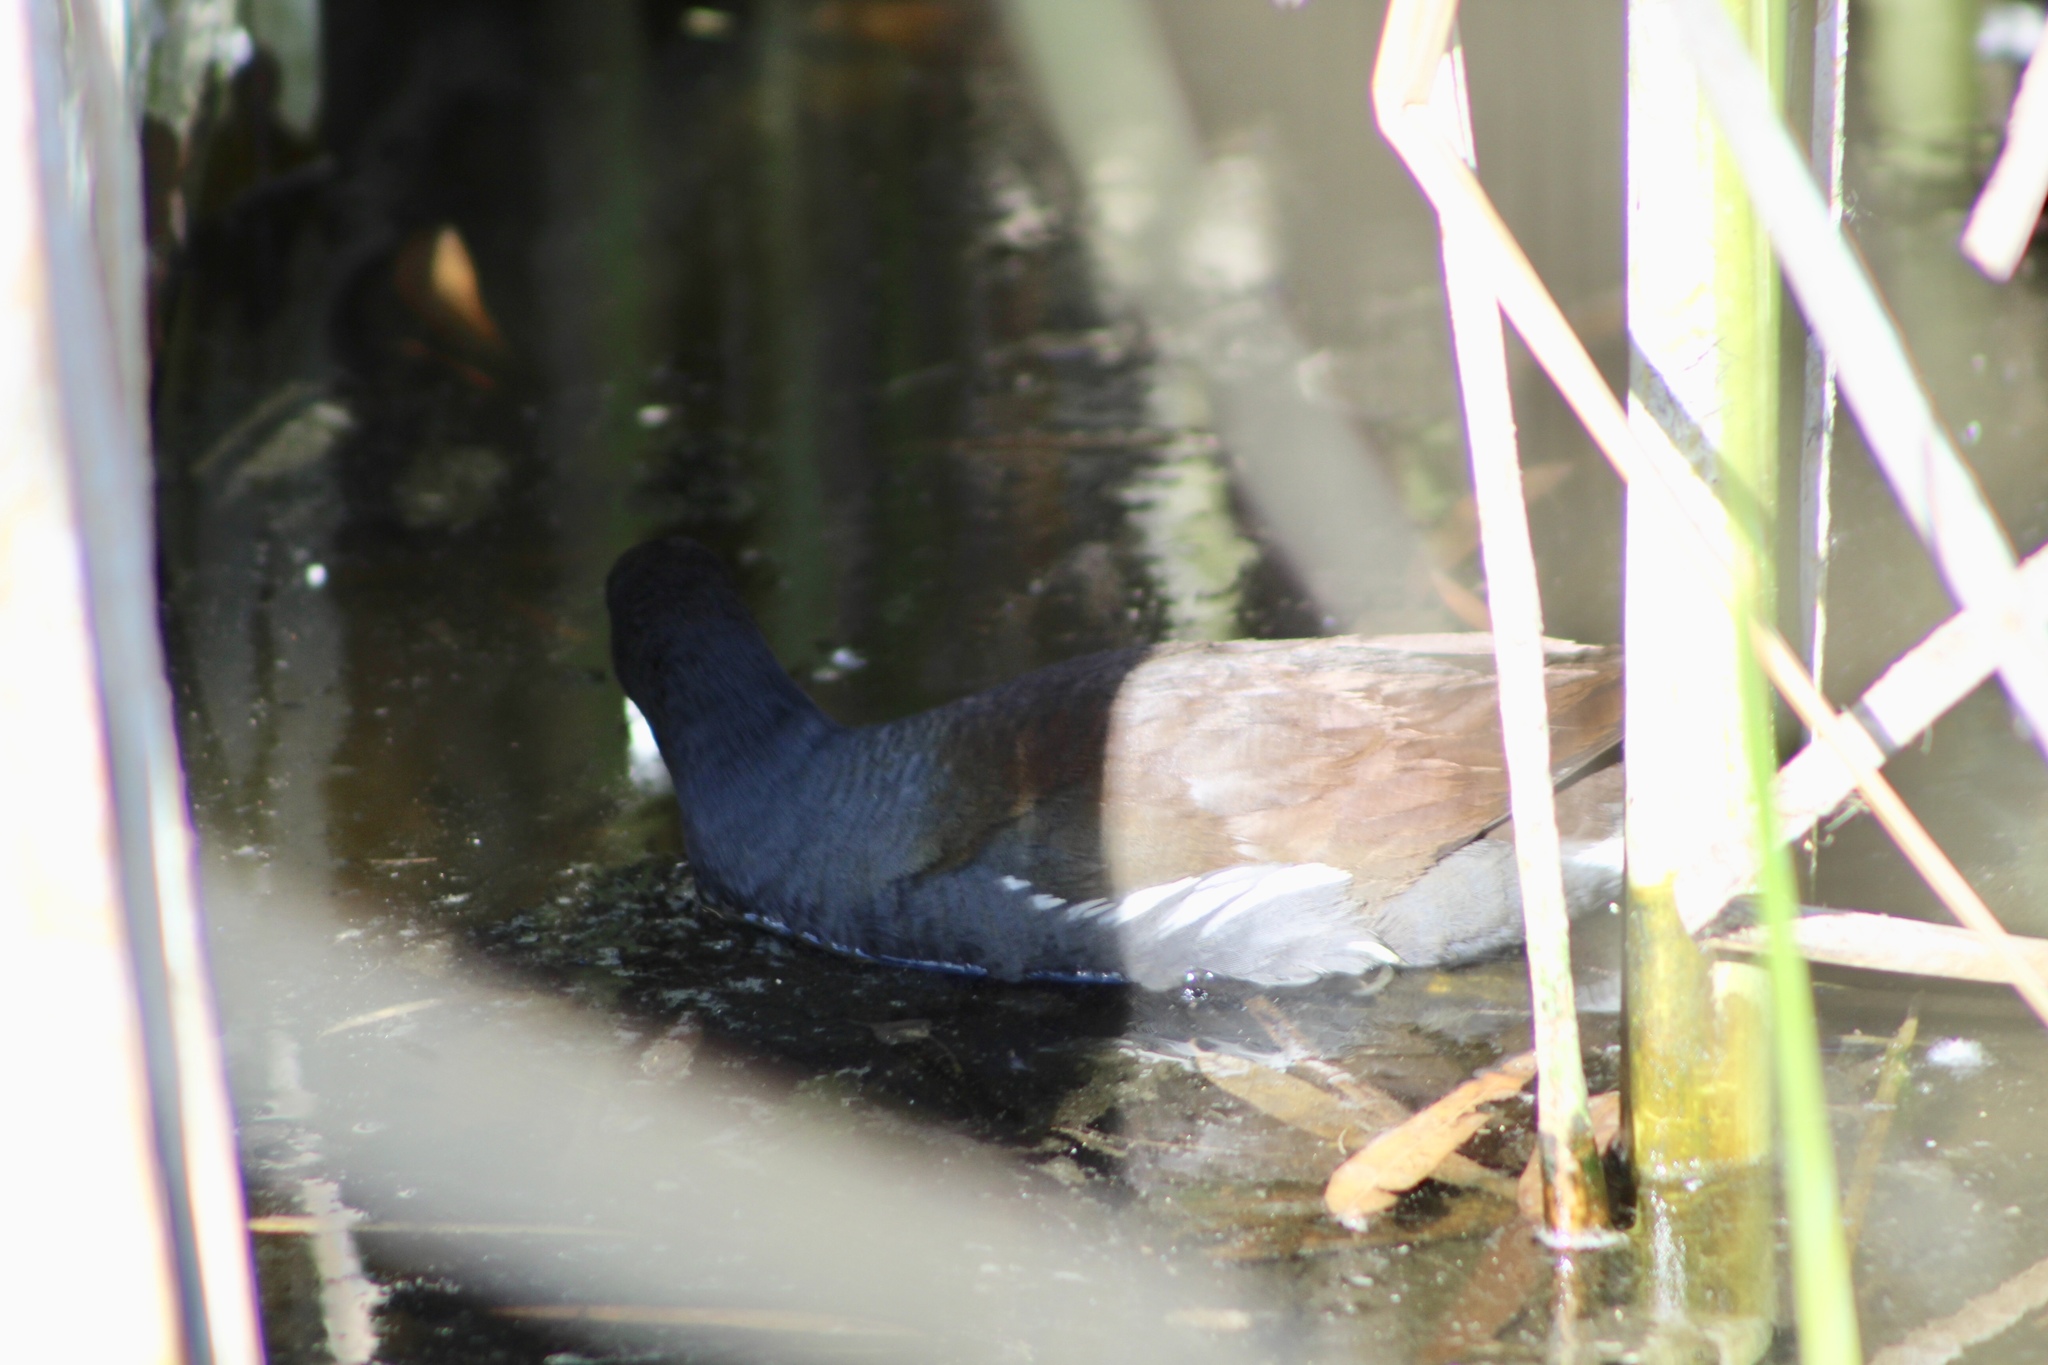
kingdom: Animalia
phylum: Chordata
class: Aves
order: Gruiformes
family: Rallidae
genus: Gallinula
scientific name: Gallinula chloropus
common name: Common moorhen
